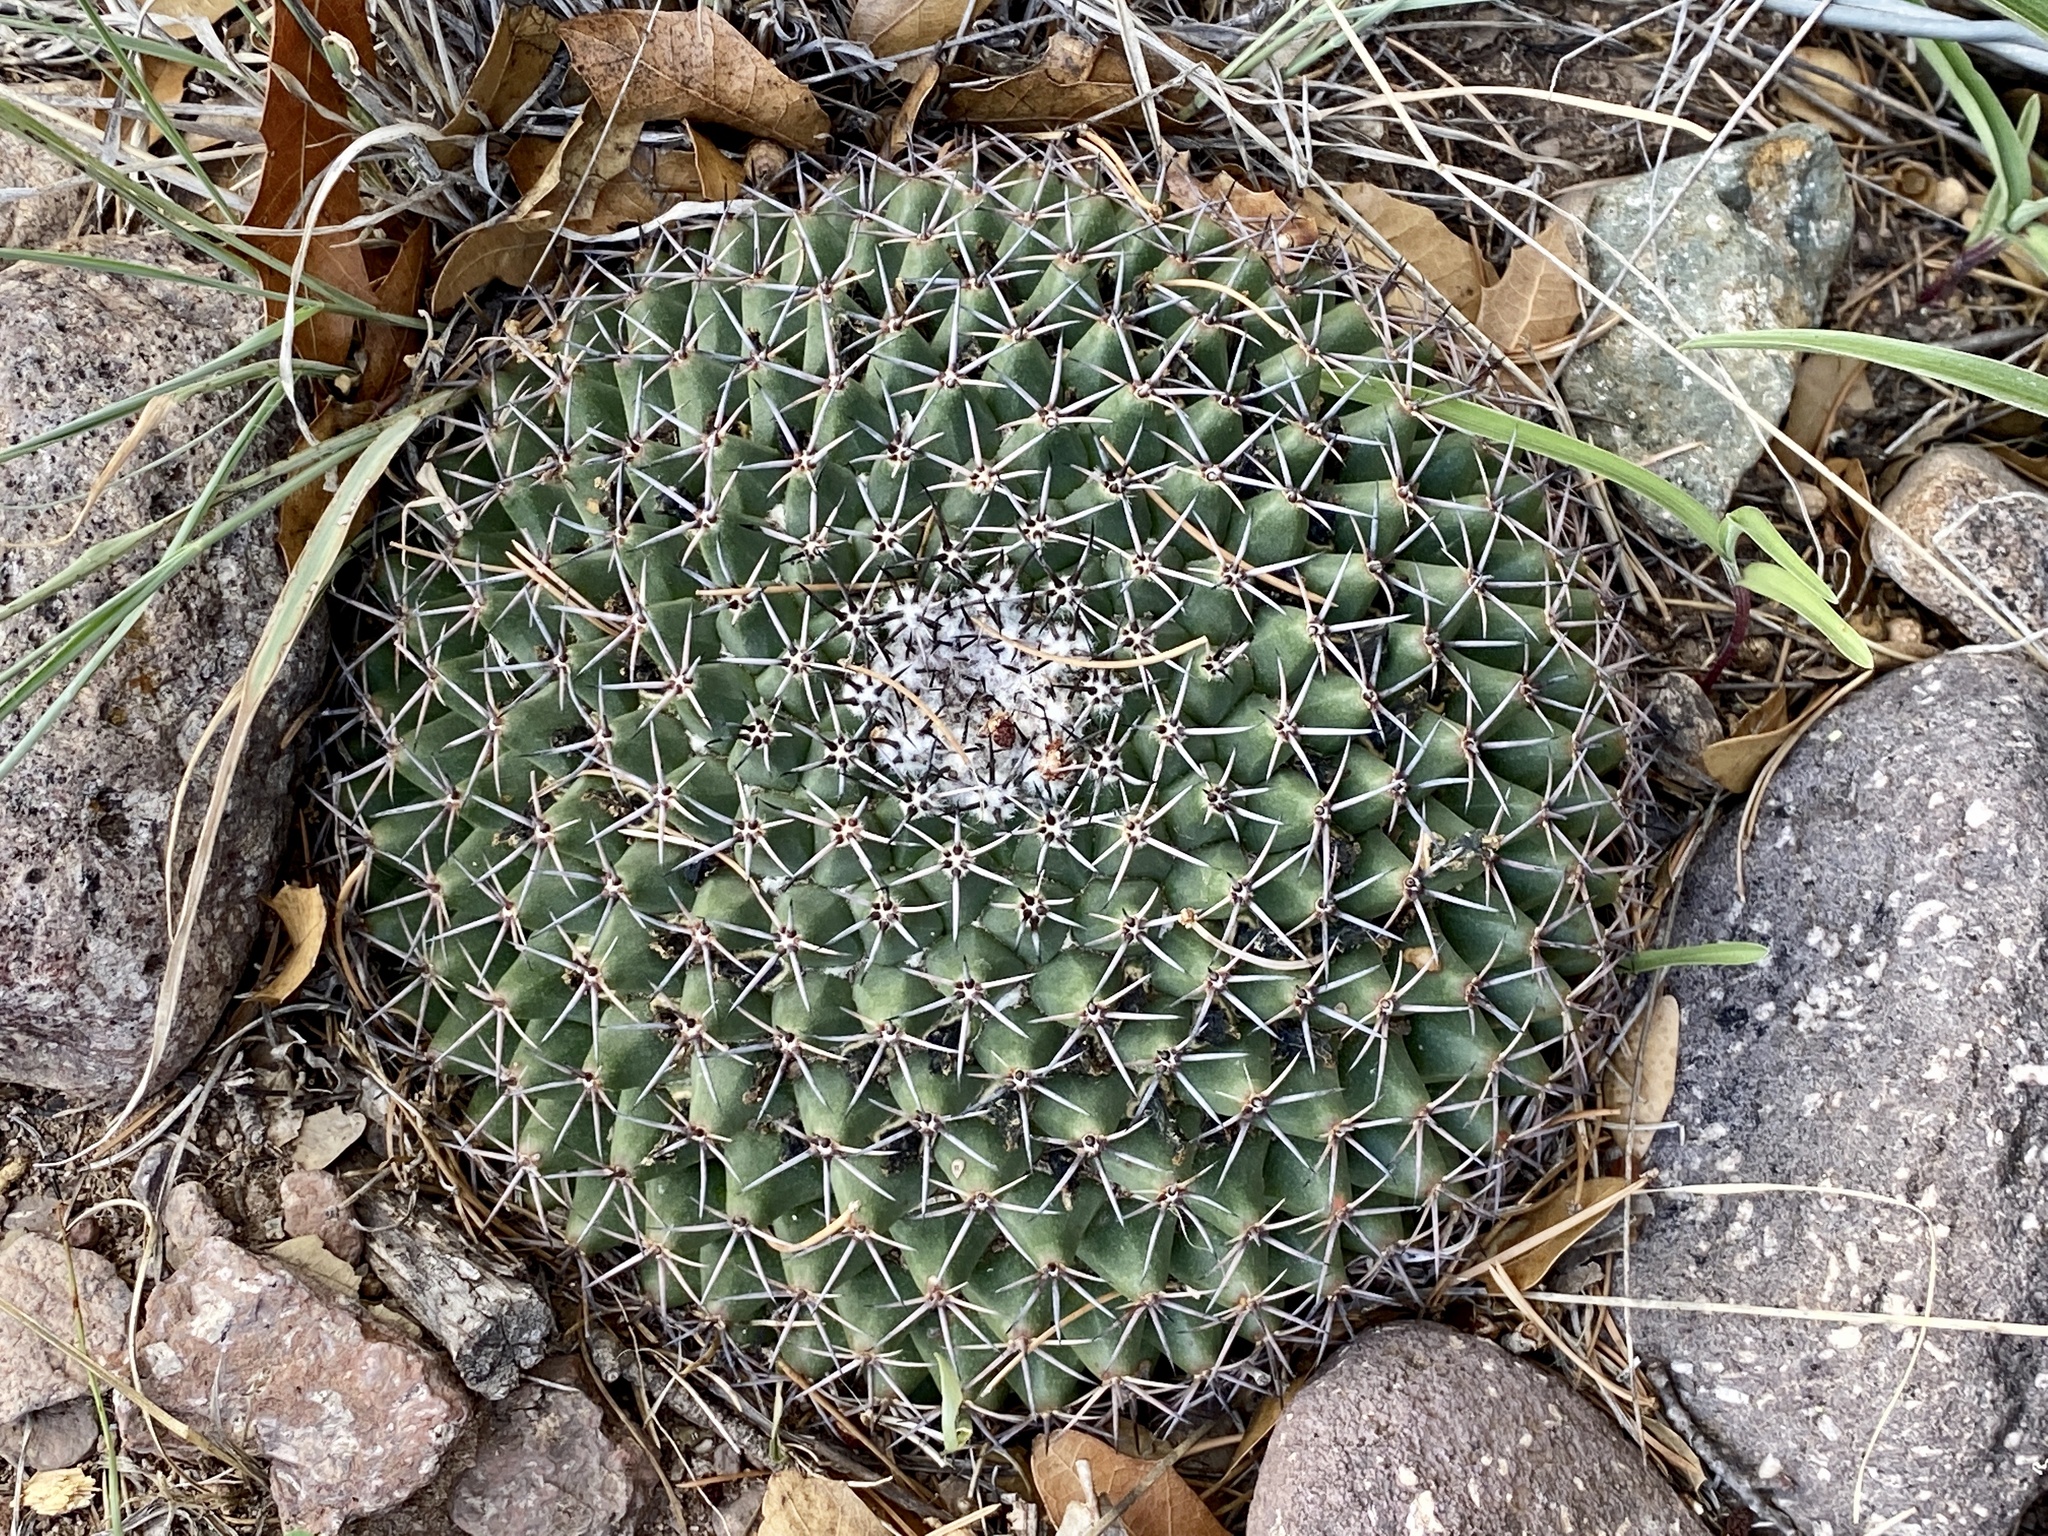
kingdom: Plantae
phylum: Tracheophyta
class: Magnoliopsida
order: Caryophyllales
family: Cactaceae
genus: Mammillaria
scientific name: Mammillaria heyderi
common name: Little nipple cactus
